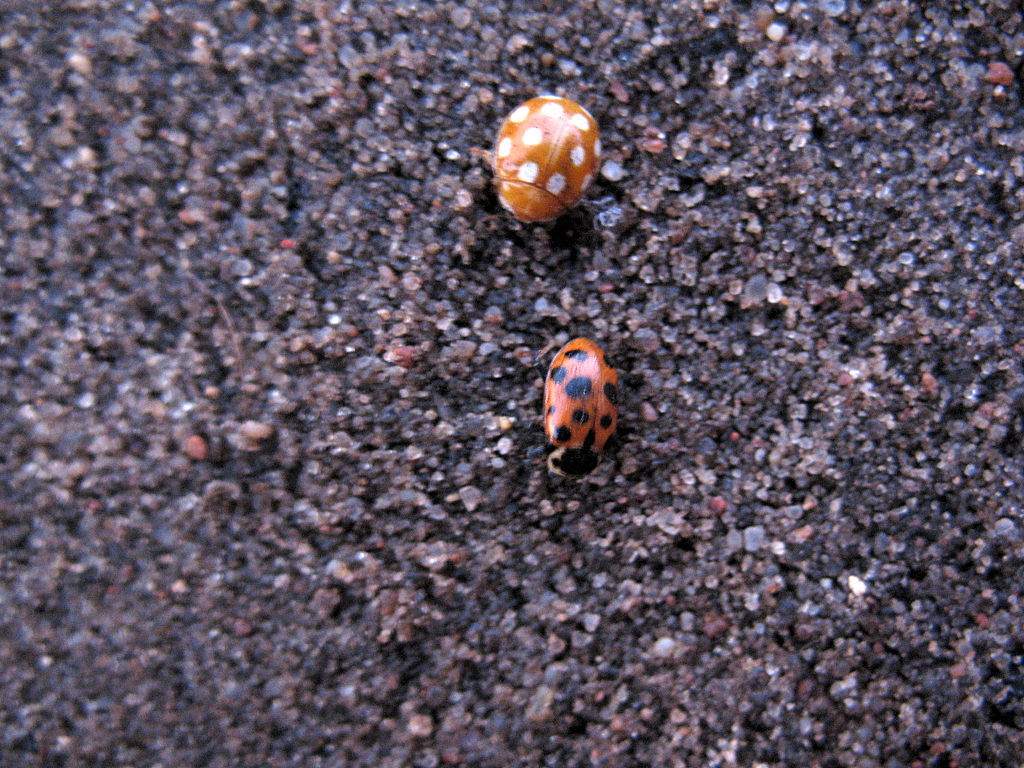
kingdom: Animalia
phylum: Arthropoda
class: Insecta
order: Coleoptera
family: Coccinellidae
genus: Hippodamia
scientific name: Hippodamia tredecimpunctata
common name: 13-spot ladybird
